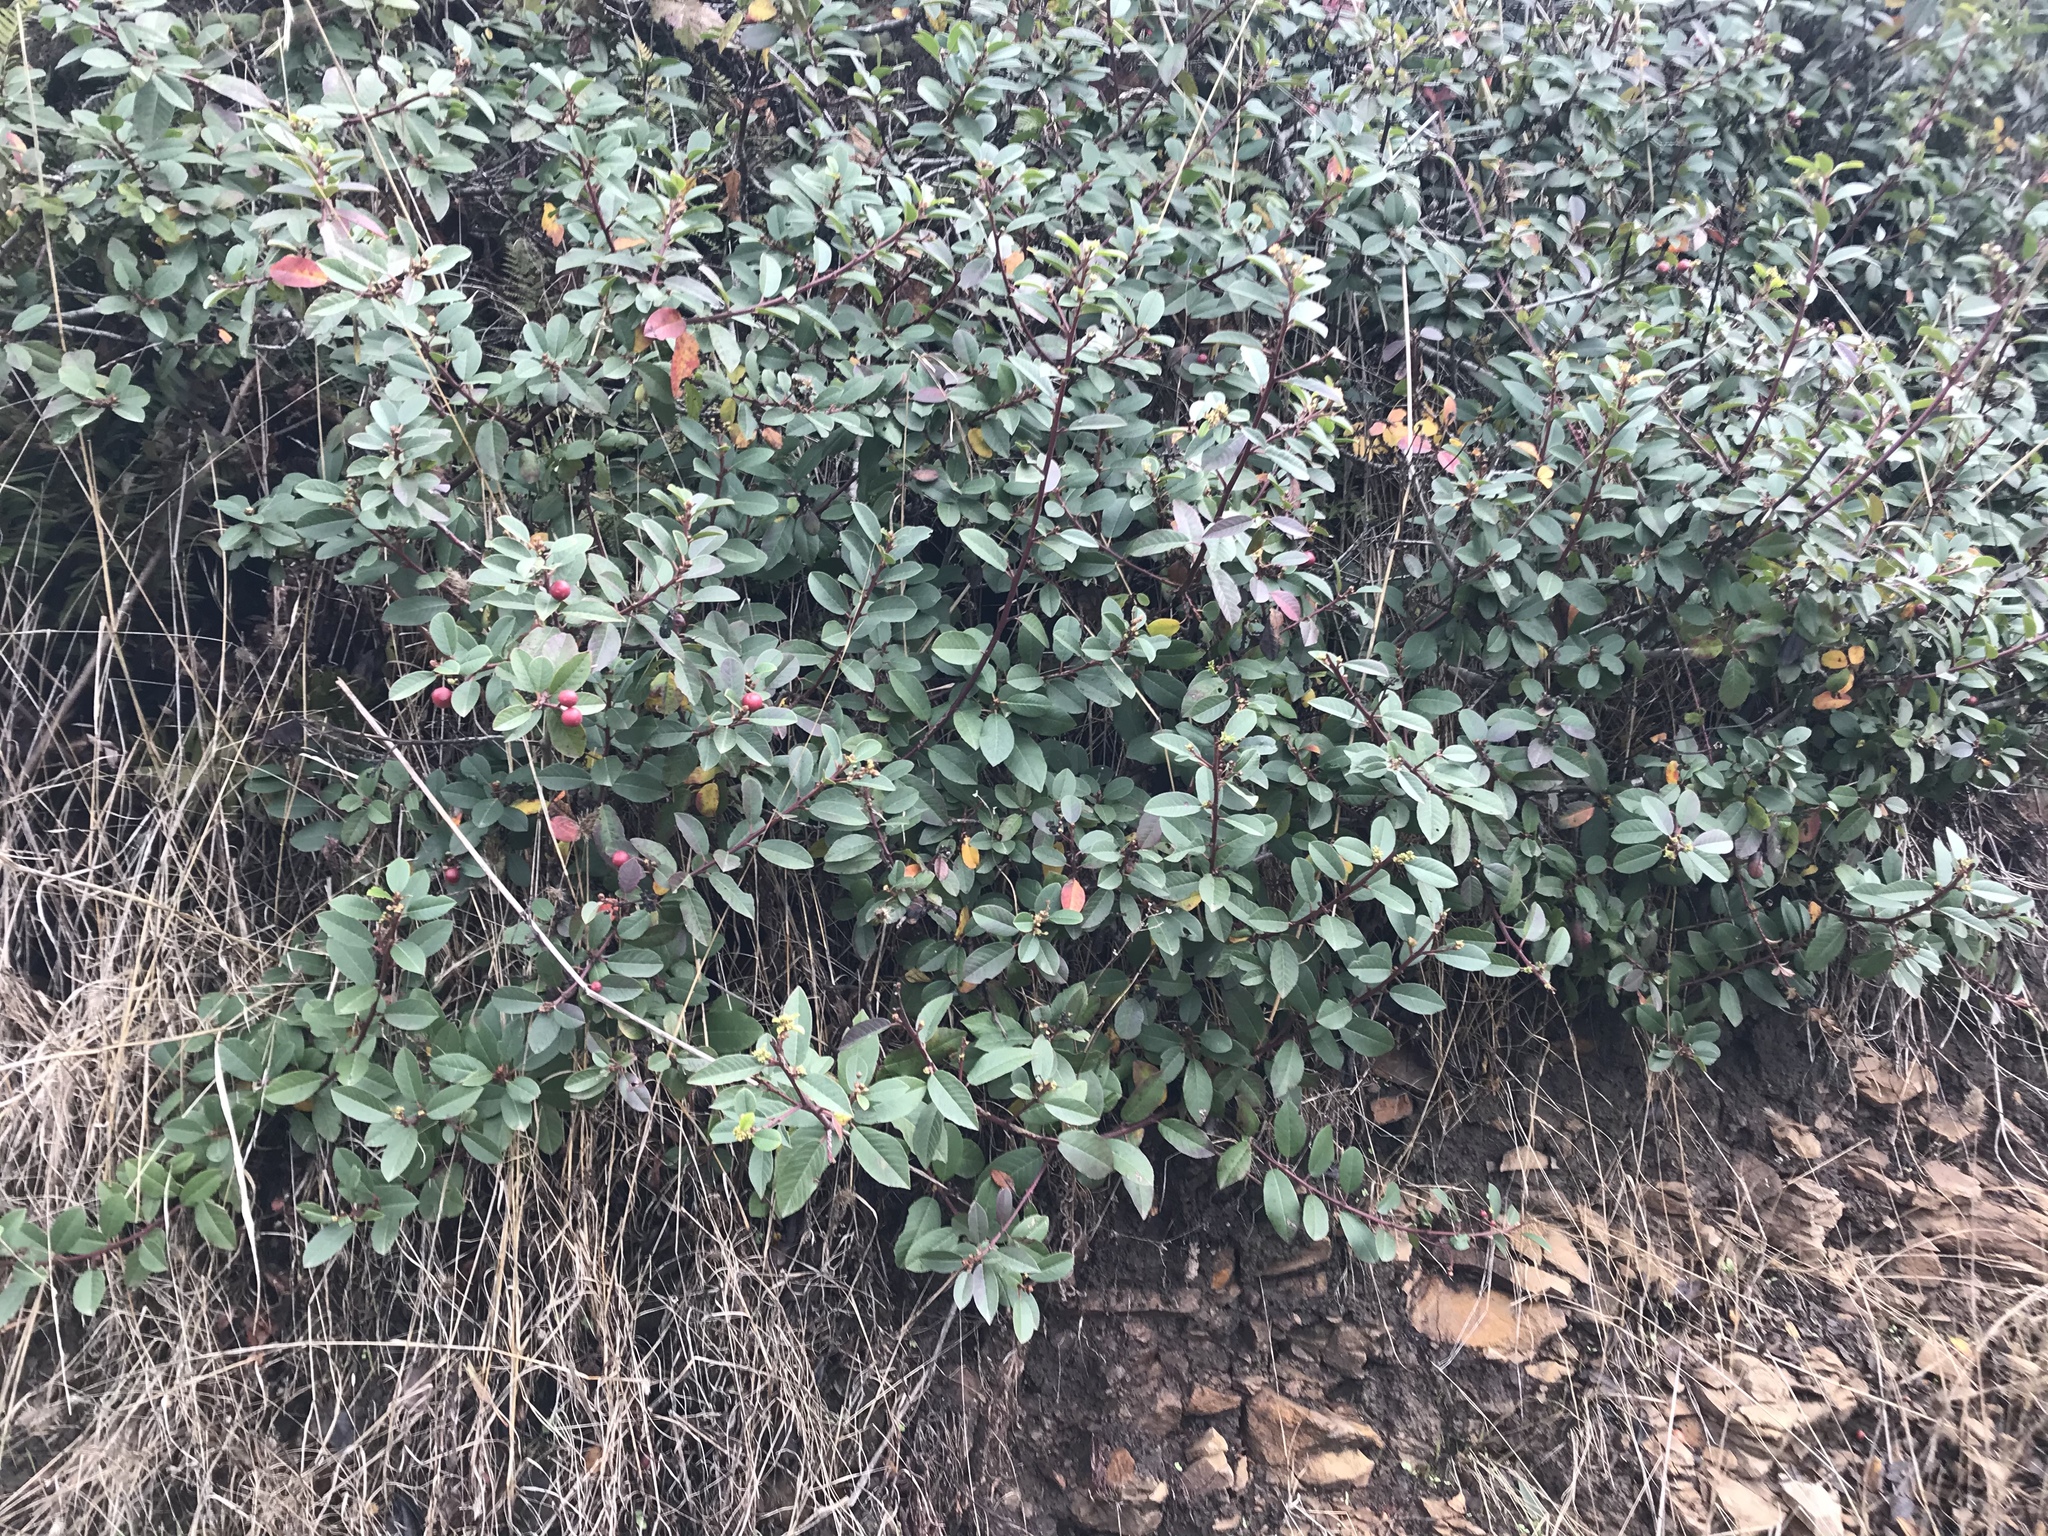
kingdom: Plantae
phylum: Tracheophyta
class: Magnoliopsida
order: Rosales
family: Rhamnaceae
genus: Frangula
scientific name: Frangula californica
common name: California buckthorn
